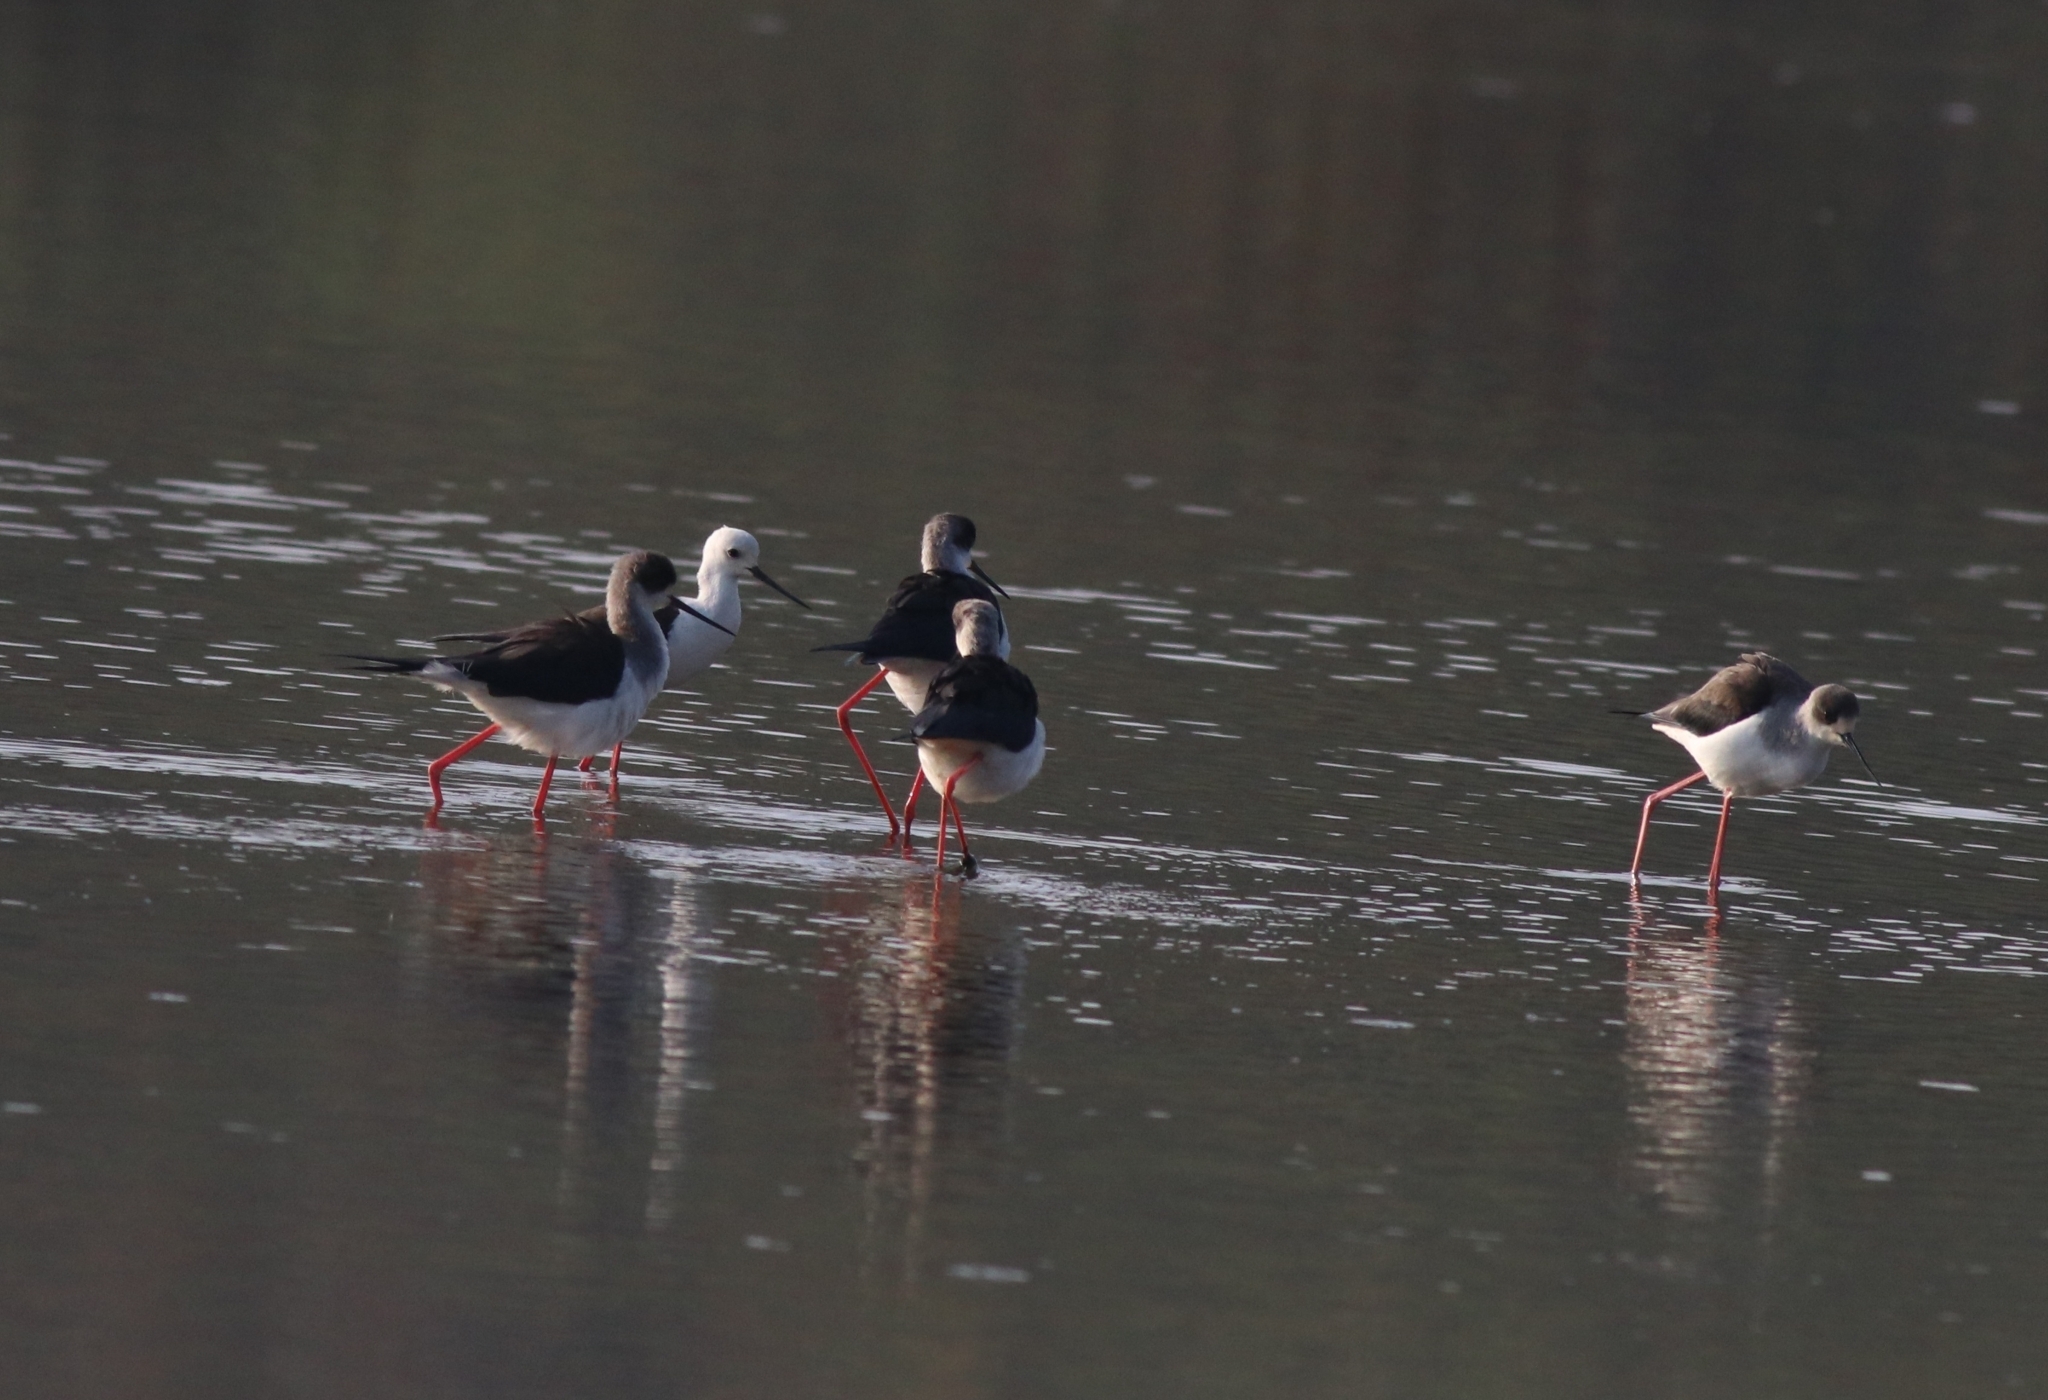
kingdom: Animalia
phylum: Chordata
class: Aves
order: Charadriiformes
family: Recurvirostridae
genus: Himantopus
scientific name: Himantopus himantopus
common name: Black-winged stilt
